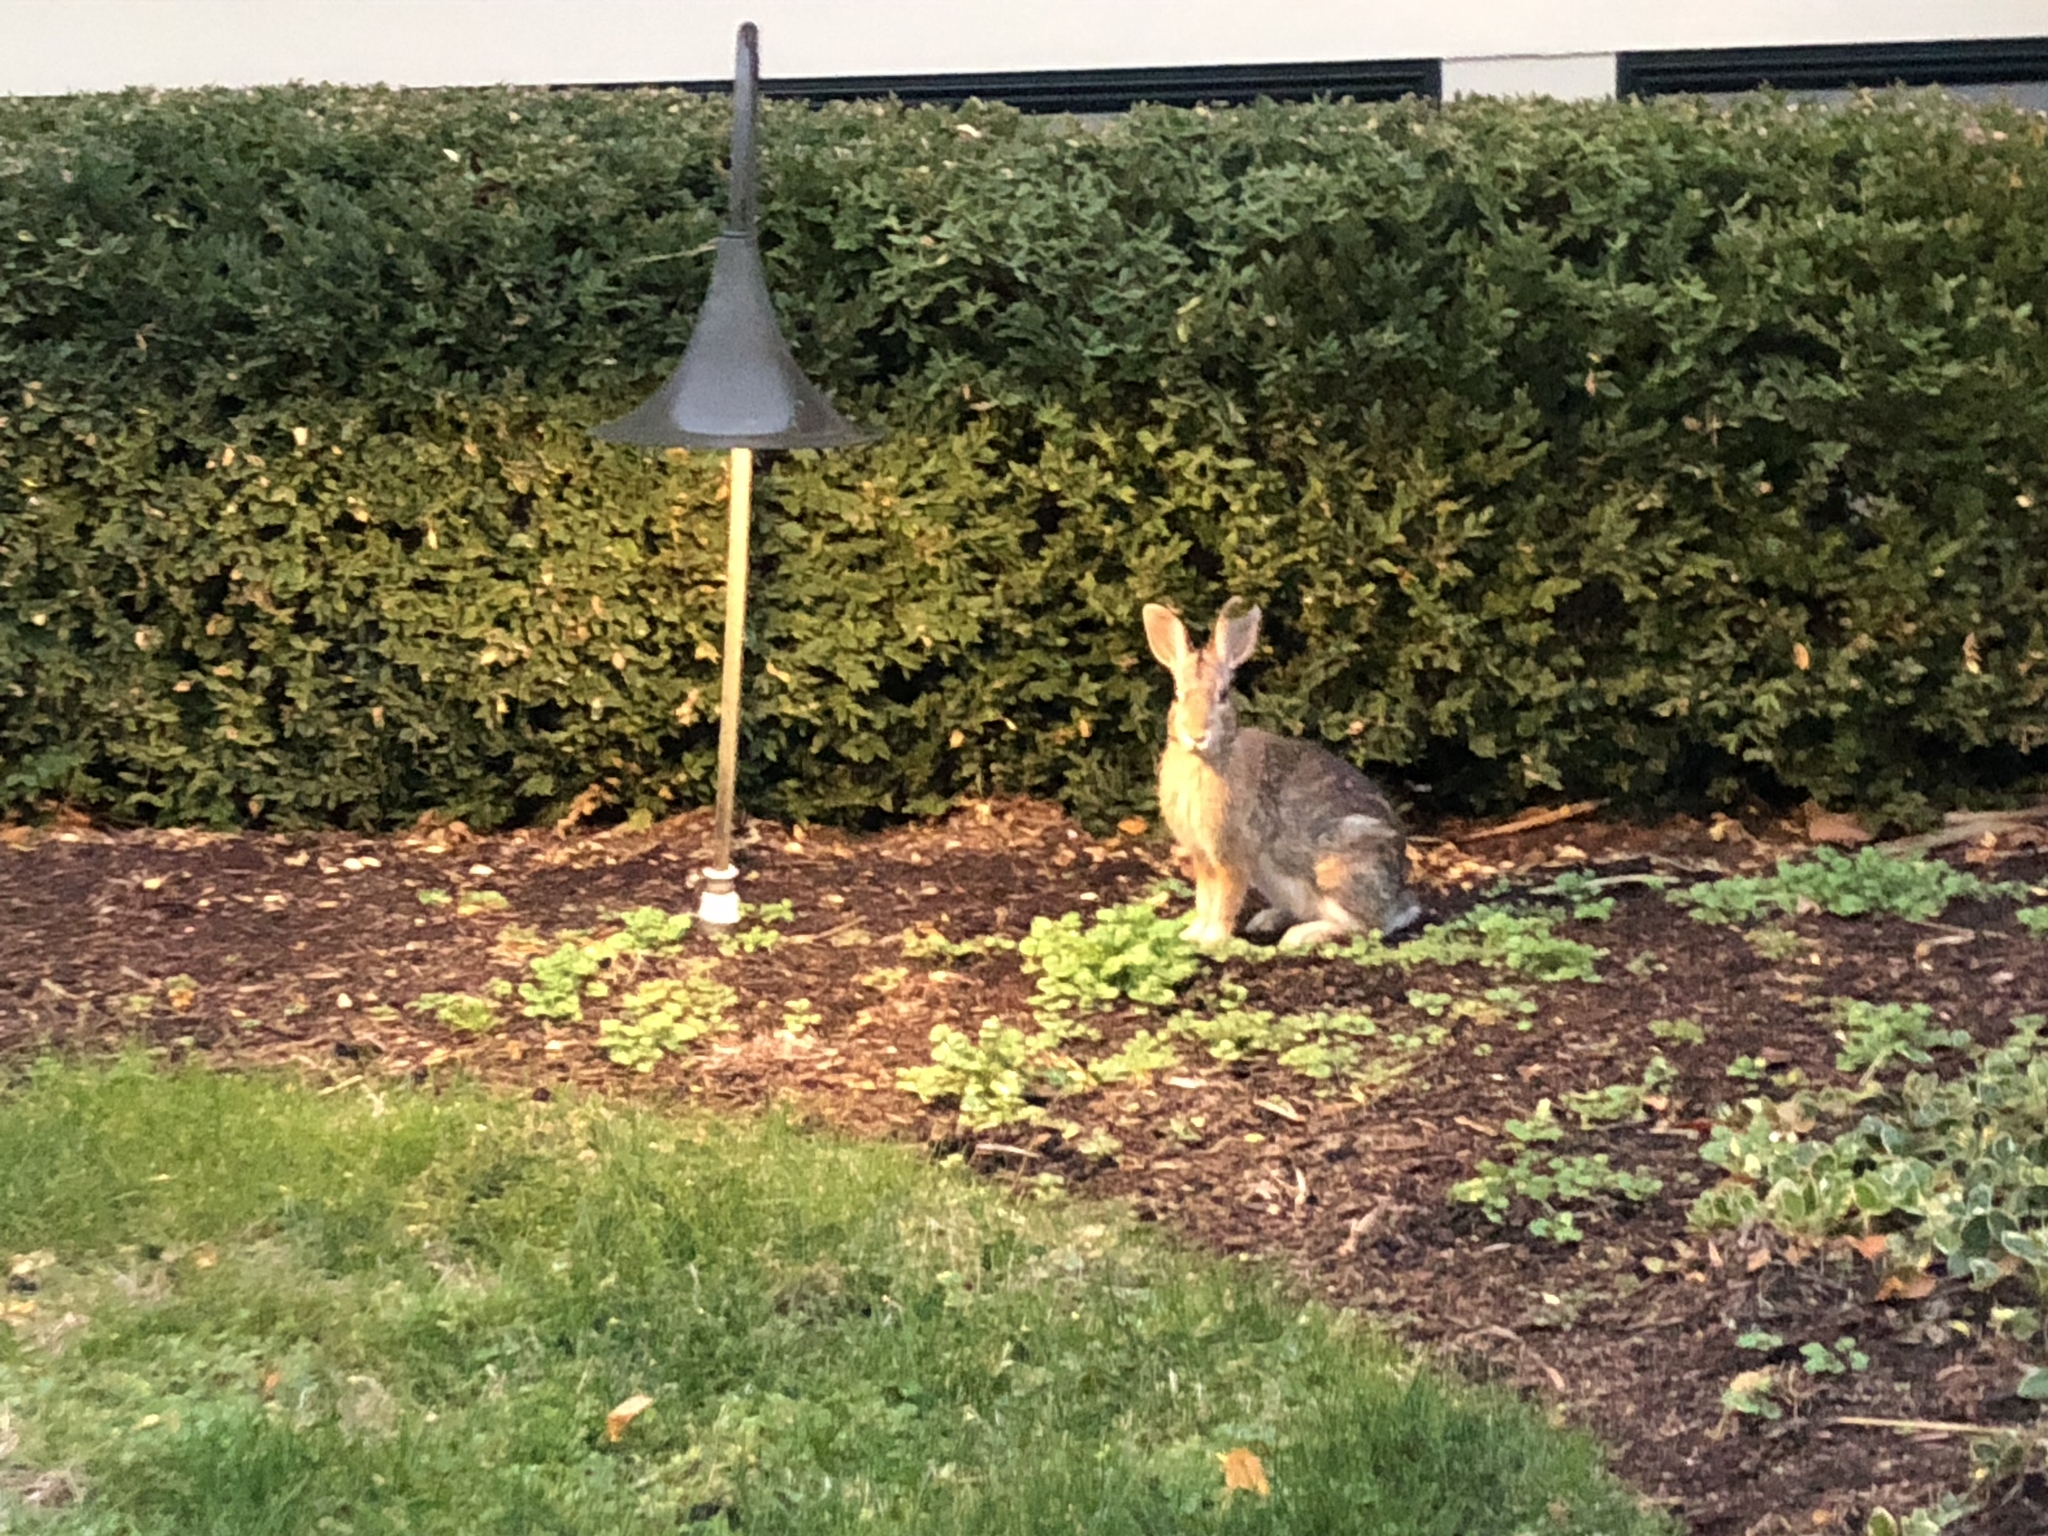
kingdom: Animalia
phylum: Chordata
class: Mammalia
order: Lagomorpha
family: Leporidae
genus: Sylvilagus
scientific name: Sylvilagus floridanus
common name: Eastern cottontail
